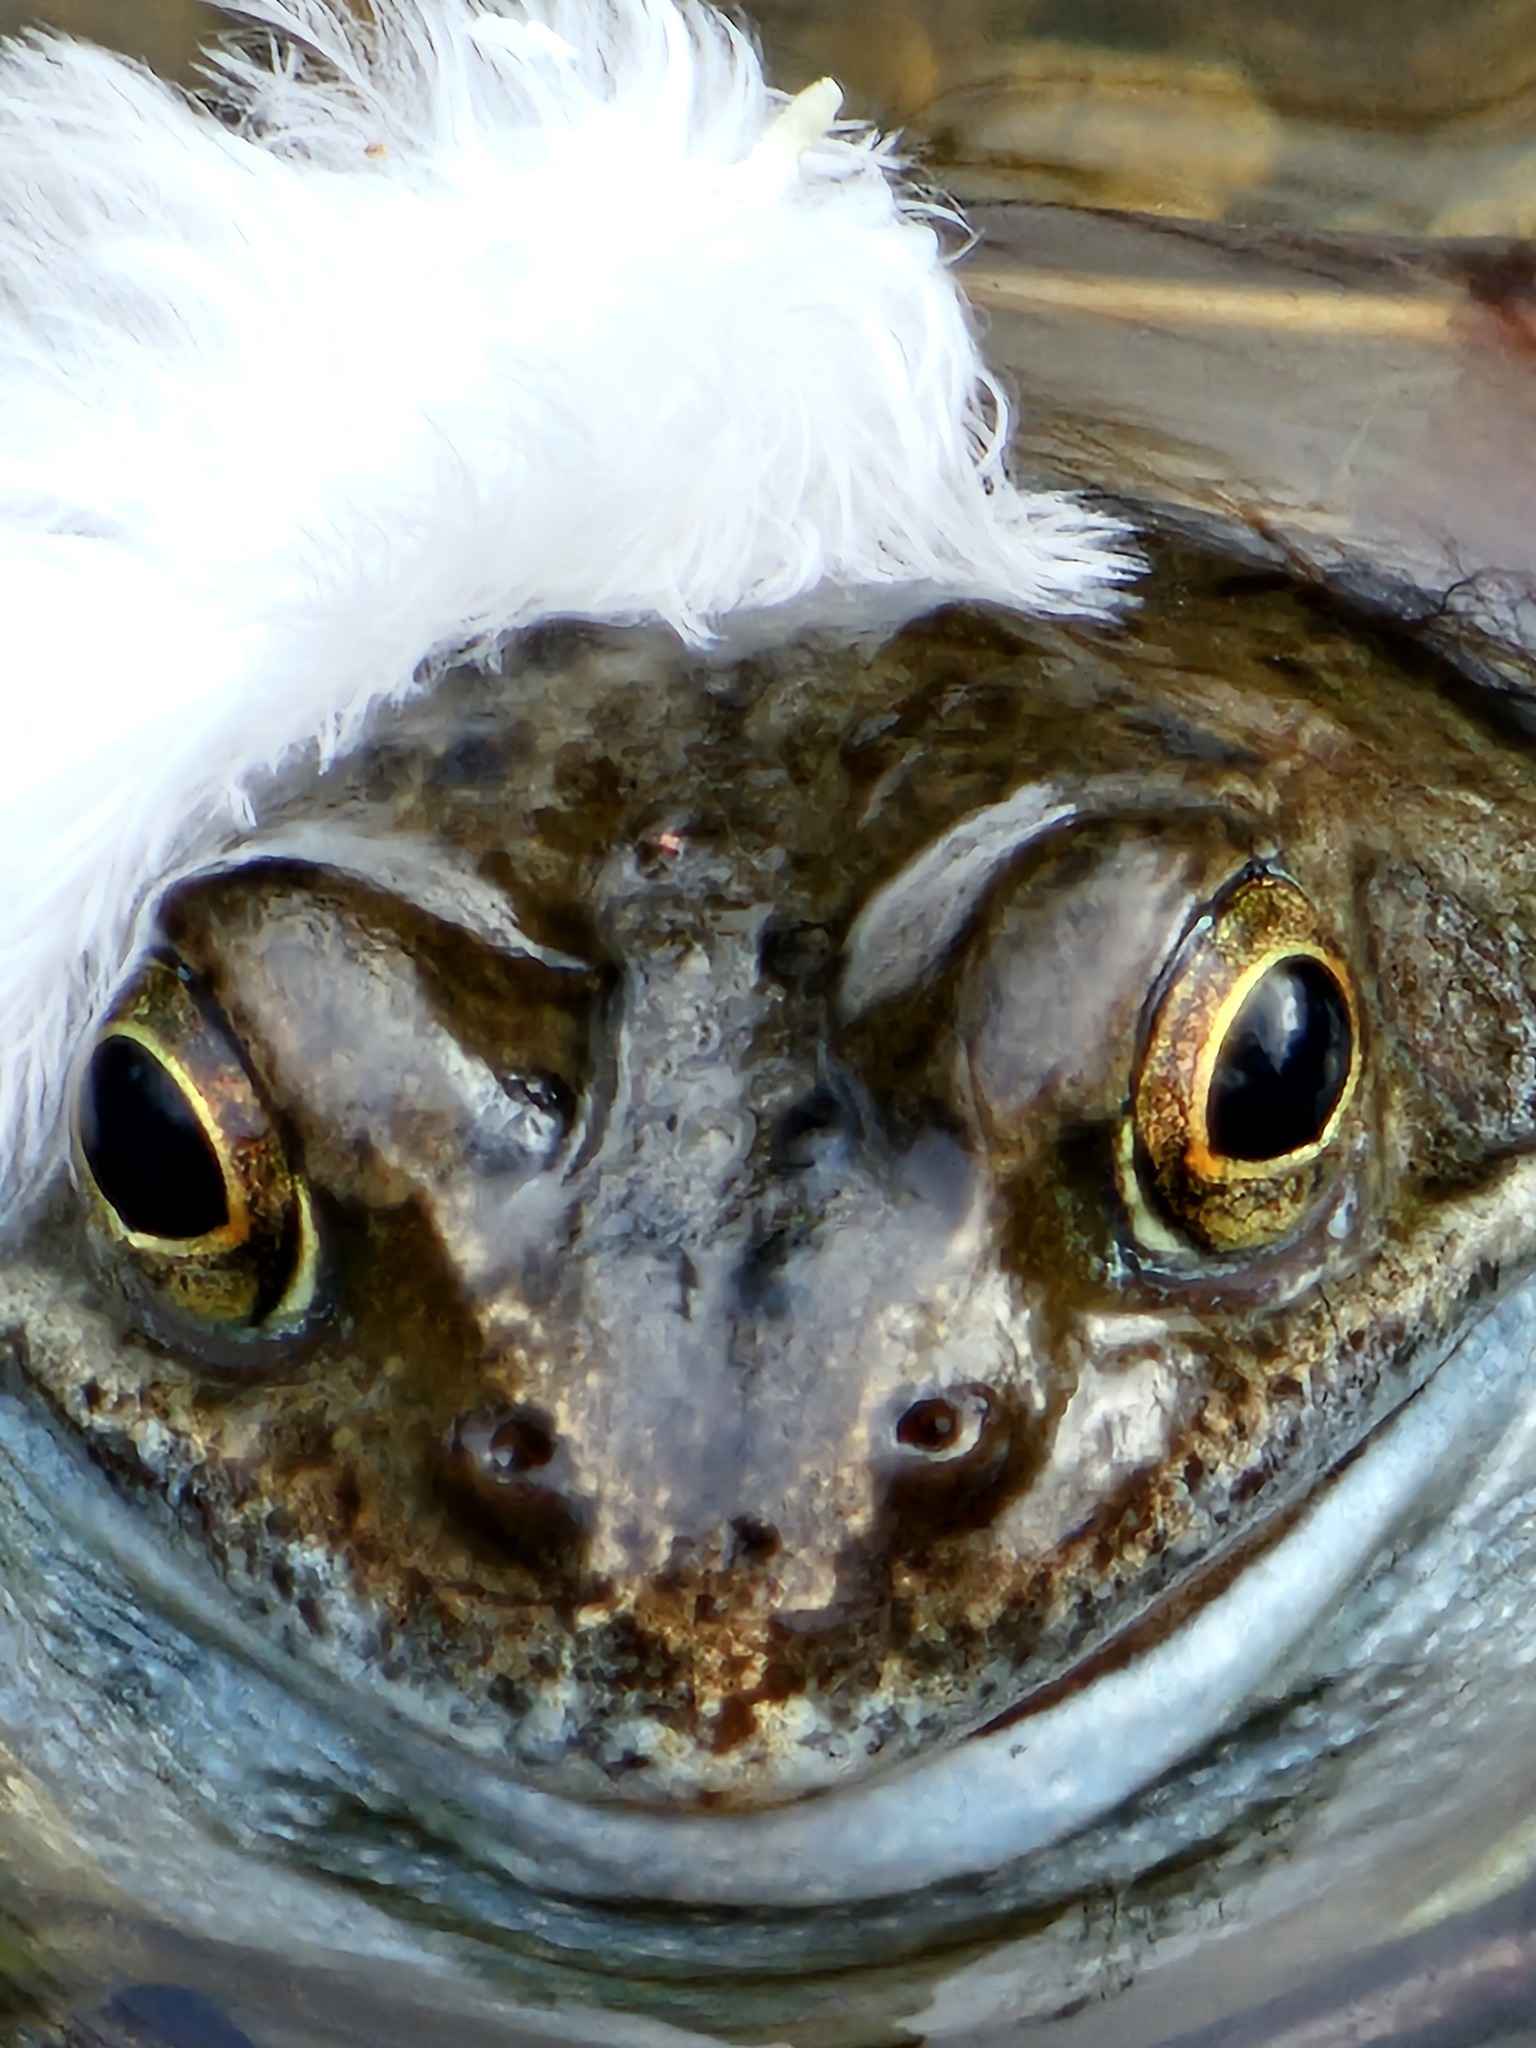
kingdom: Animalia
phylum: Chordata
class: Amphibia
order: Anura
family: Ranidae
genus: Rana
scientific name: Rana temporaria
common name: Common frog
